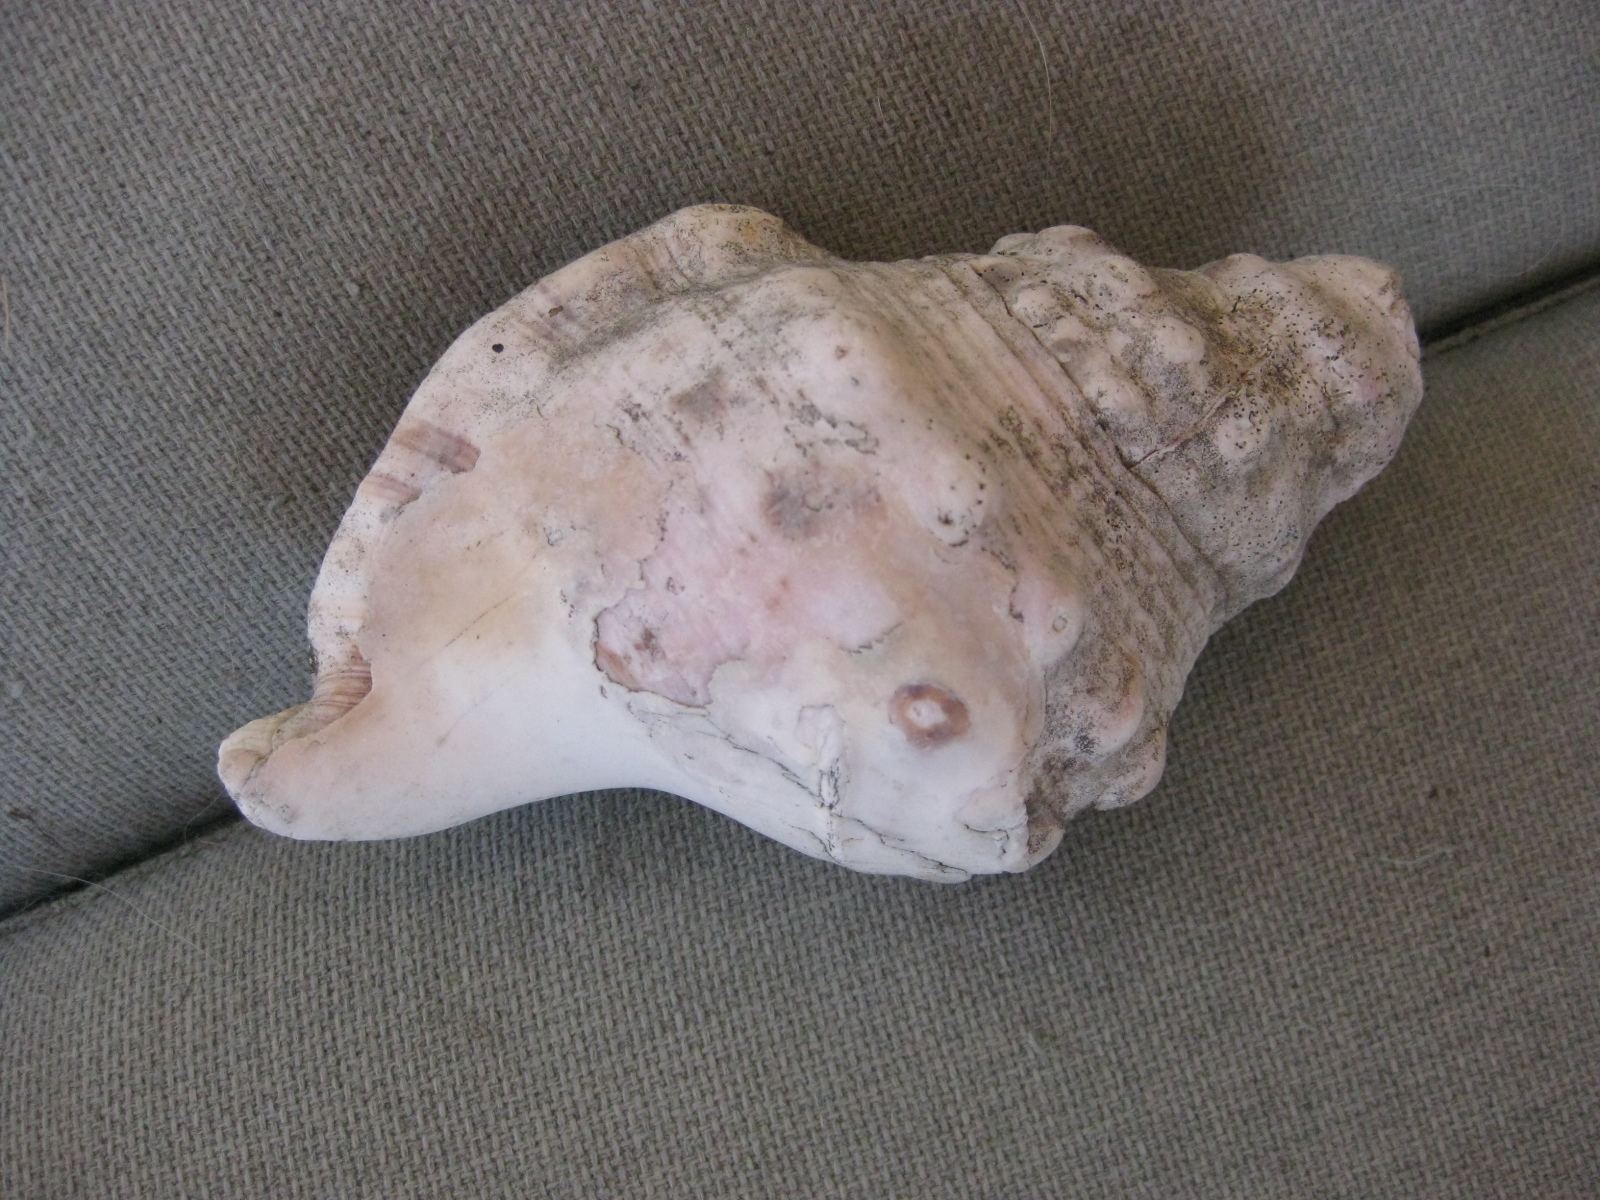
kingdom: Animalia
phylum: Mollusca
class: Gastropoda
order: Littorinimorpha
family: Charoniidae
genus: Charonia
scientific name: Charonia lampas
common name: Knobbed triton
